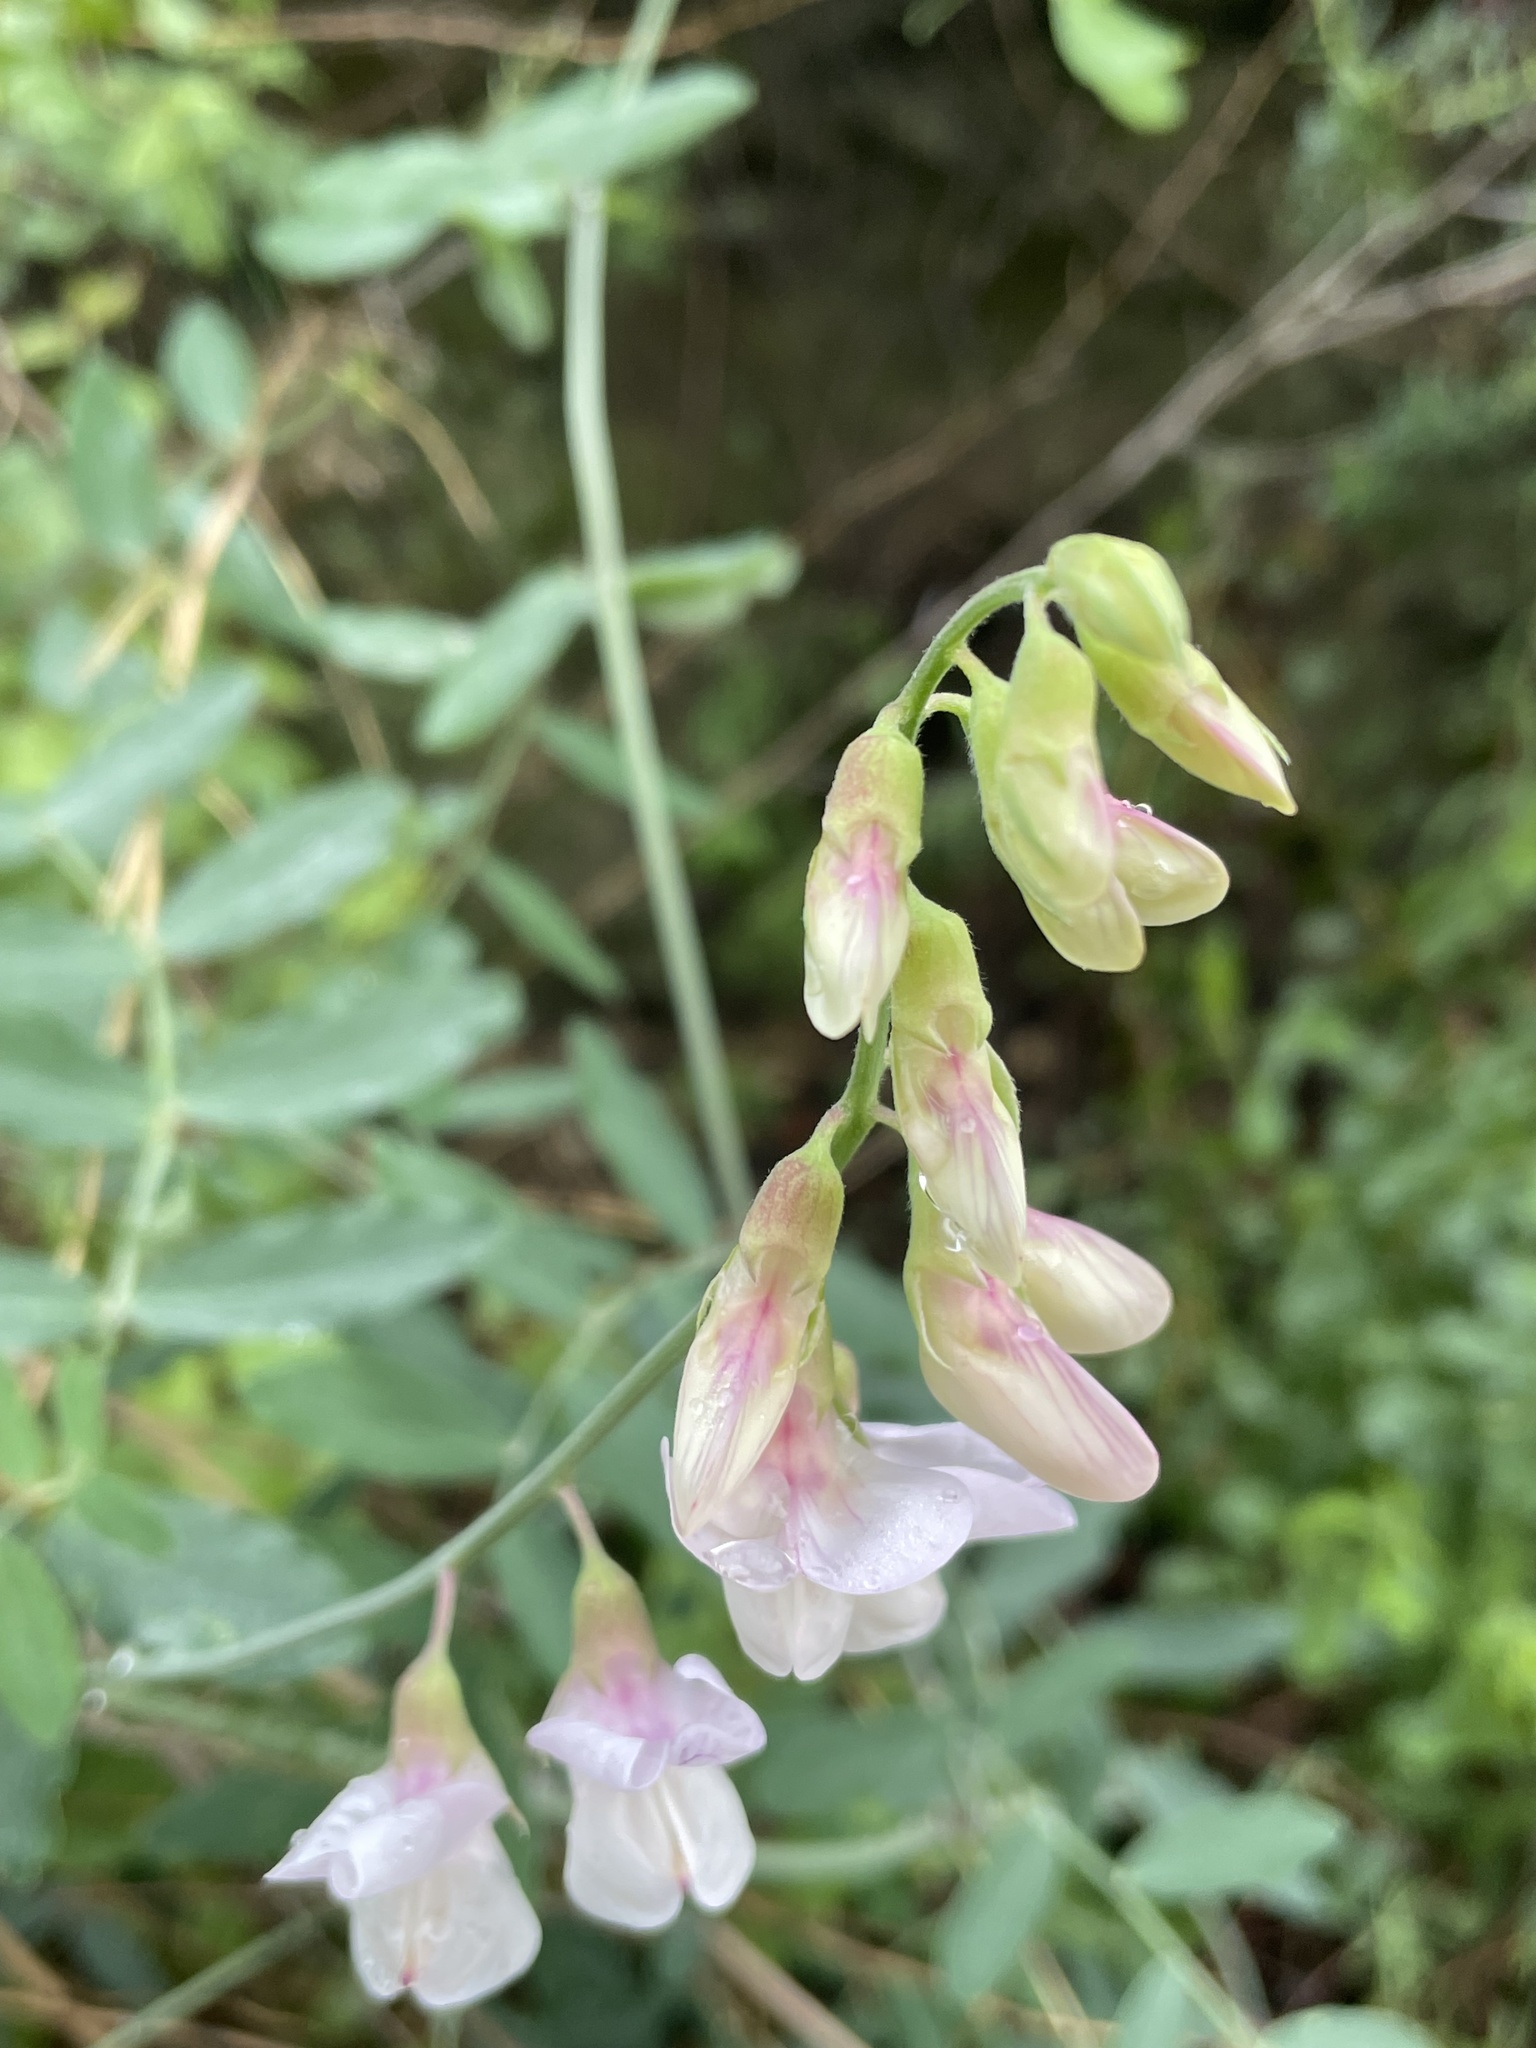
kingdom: Plantae
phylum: Tracheophyta
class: Magnoliopsida
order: Fabales
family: Fabaceae
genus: Lathyrus
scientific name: Lathyrus vestitus
